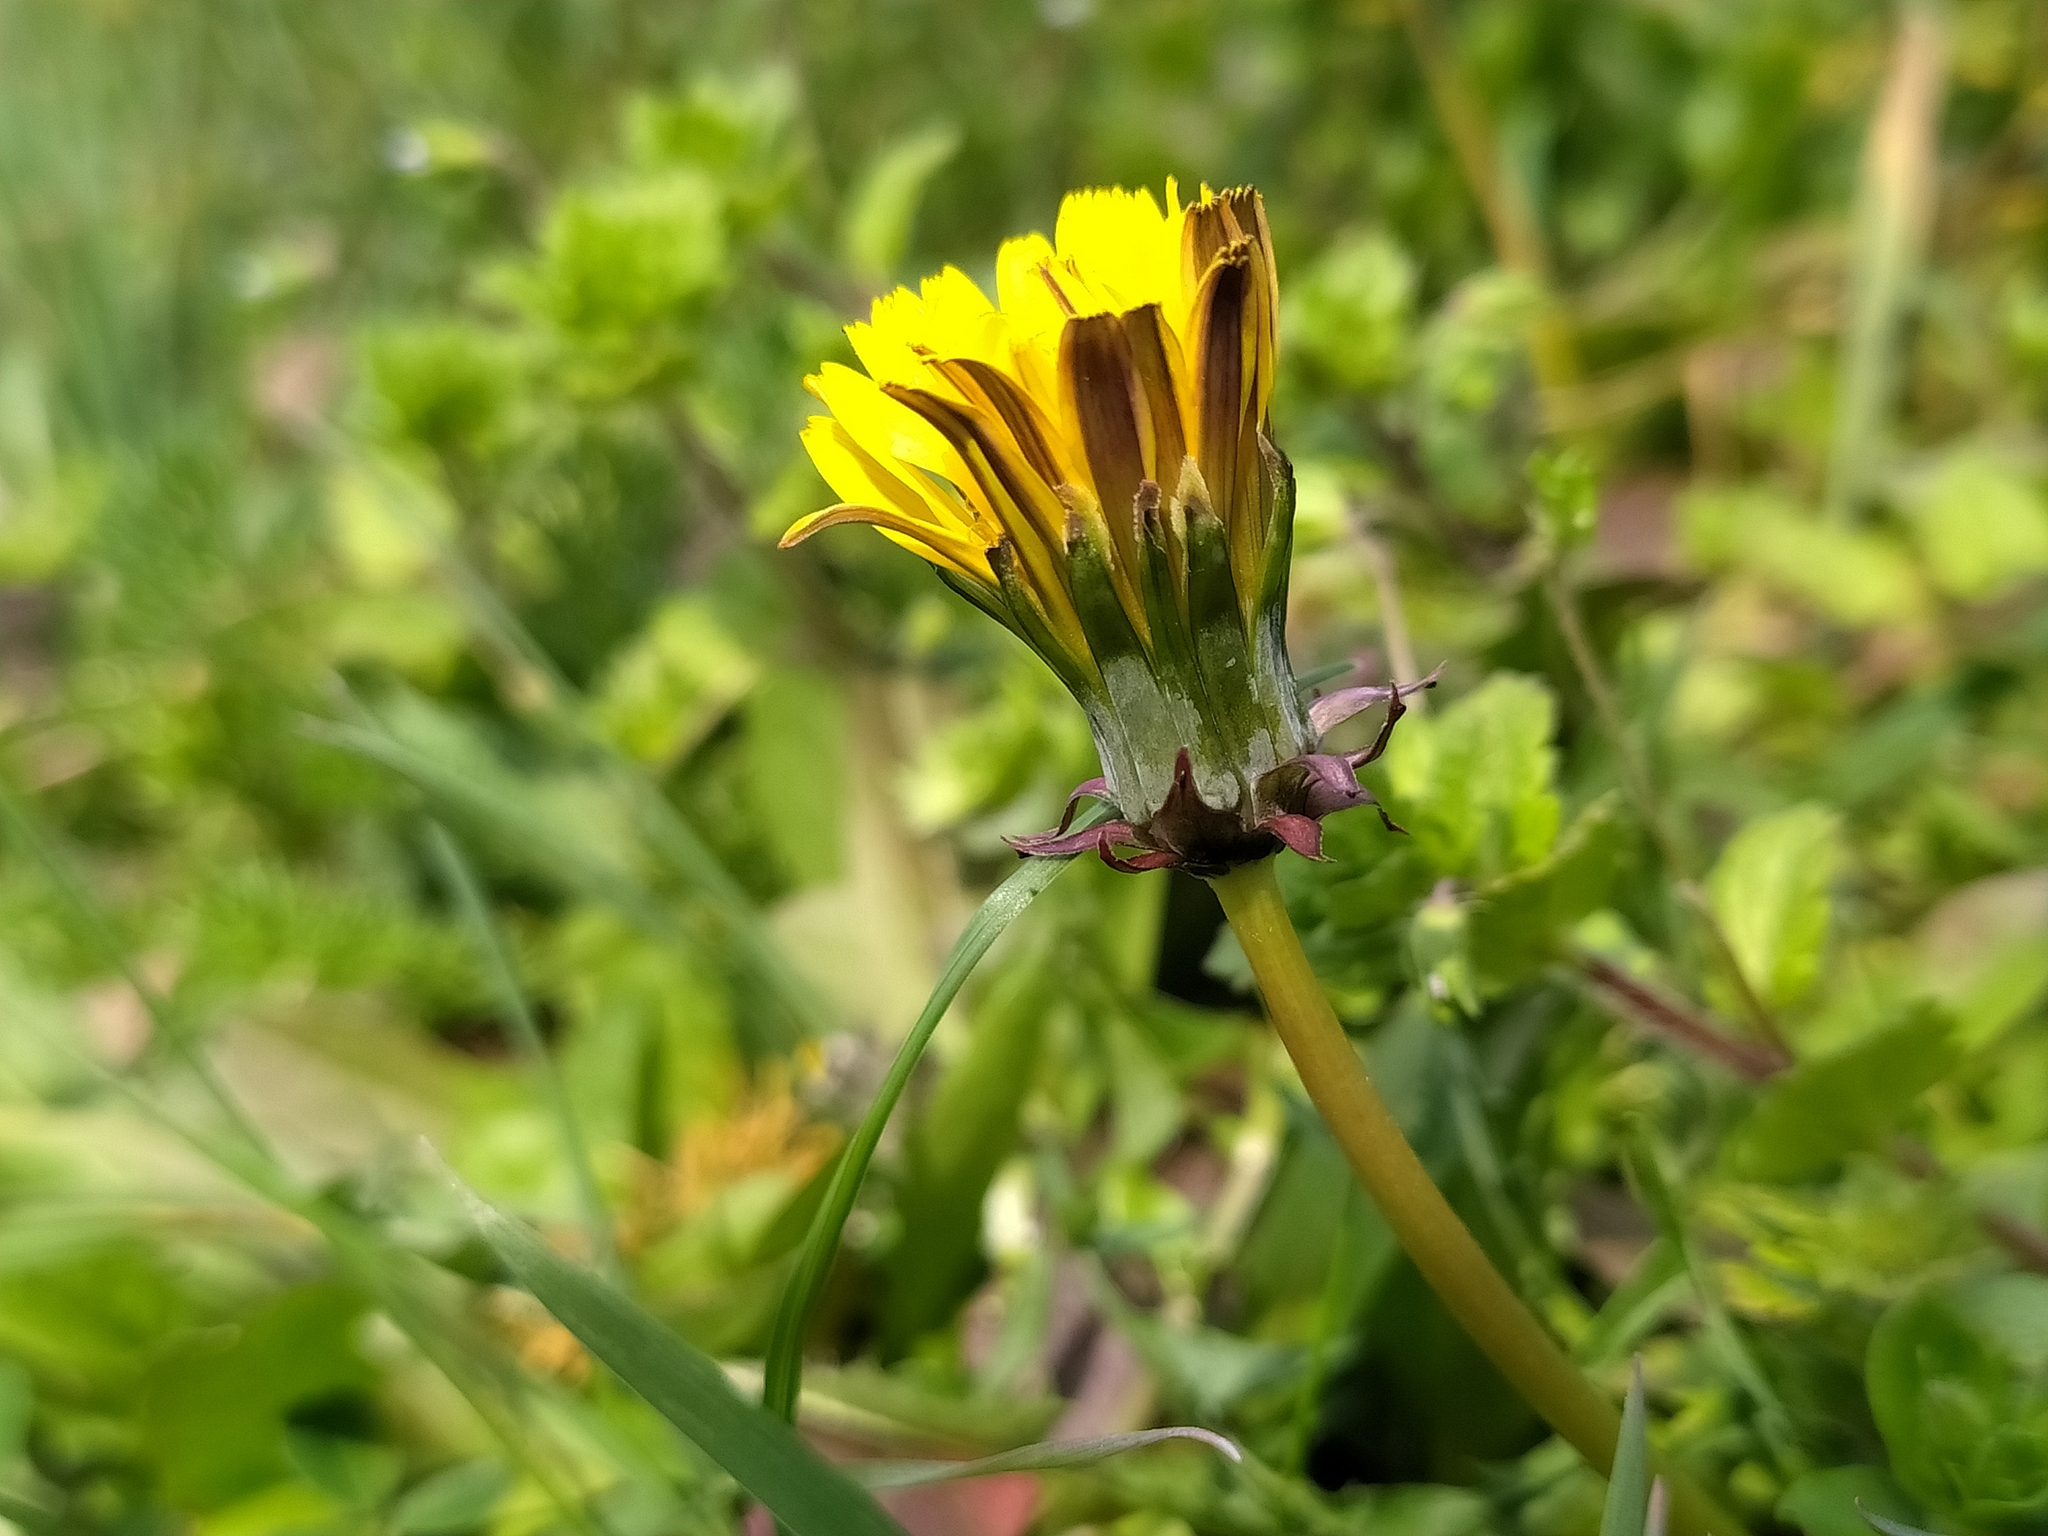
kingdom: Plantae
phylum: Tracheophyta
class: Magnoliopsida
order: Asterales
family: Asteraceae
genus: Taraxacum
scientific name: Taraxacum lacistophyllum
